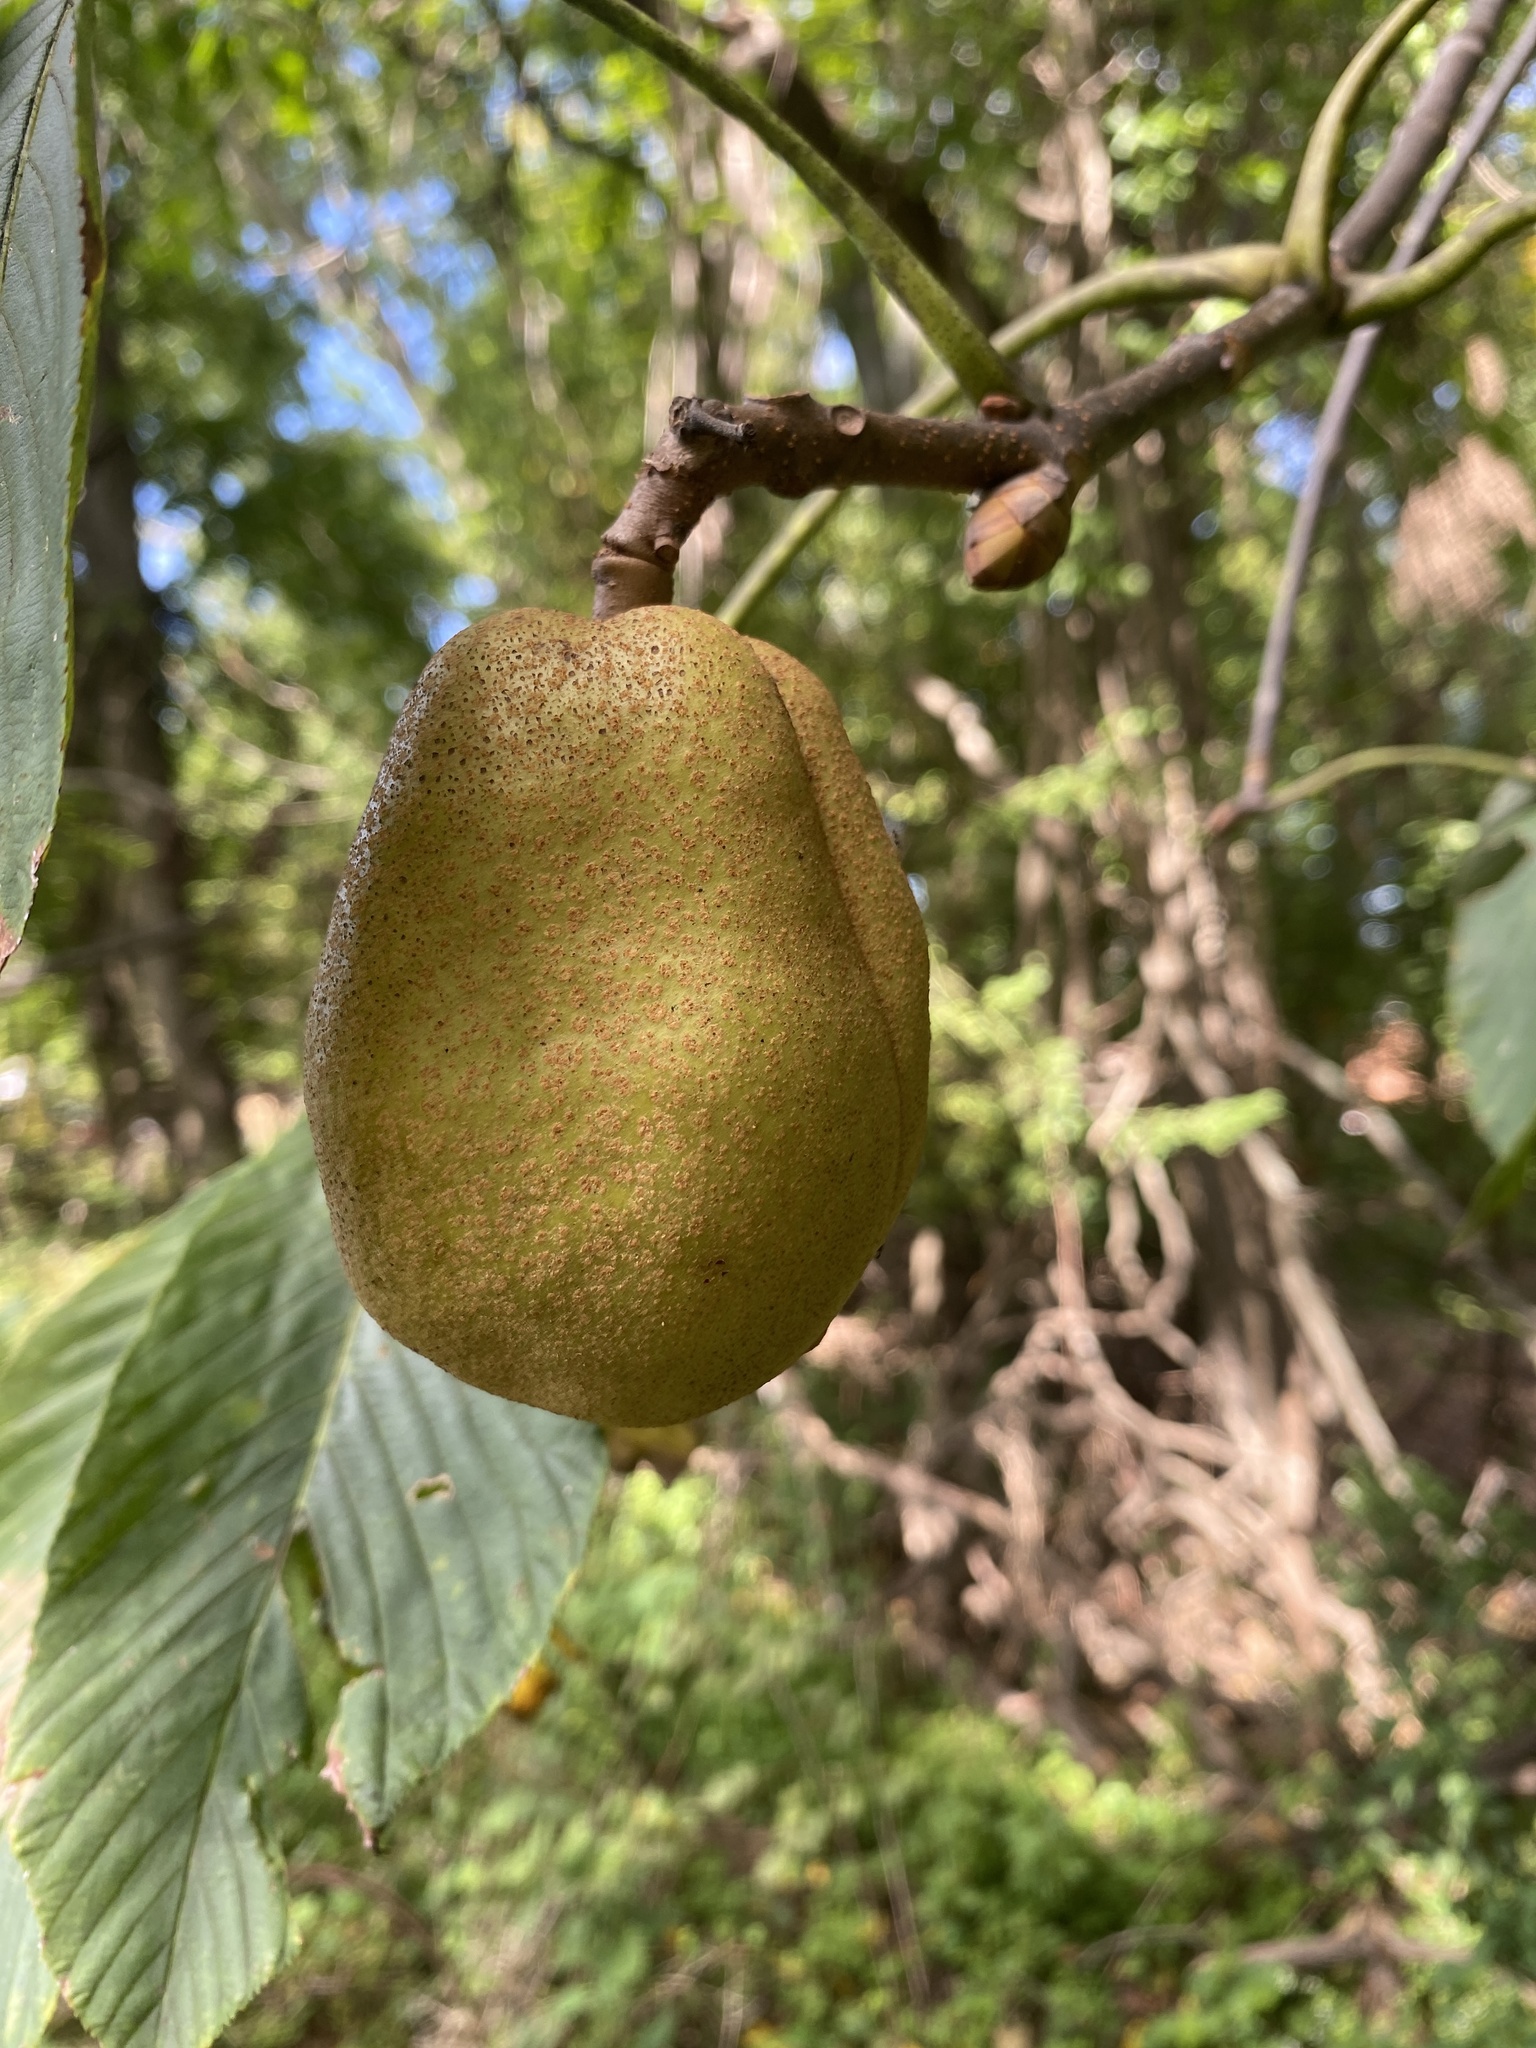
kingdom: Plantae
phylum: Tracheophyta
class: Magnoliopsida
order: Sapindales
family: Sapindaceae
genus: Aesculus
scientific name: Aesculus flava
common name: Yellow buckeye
